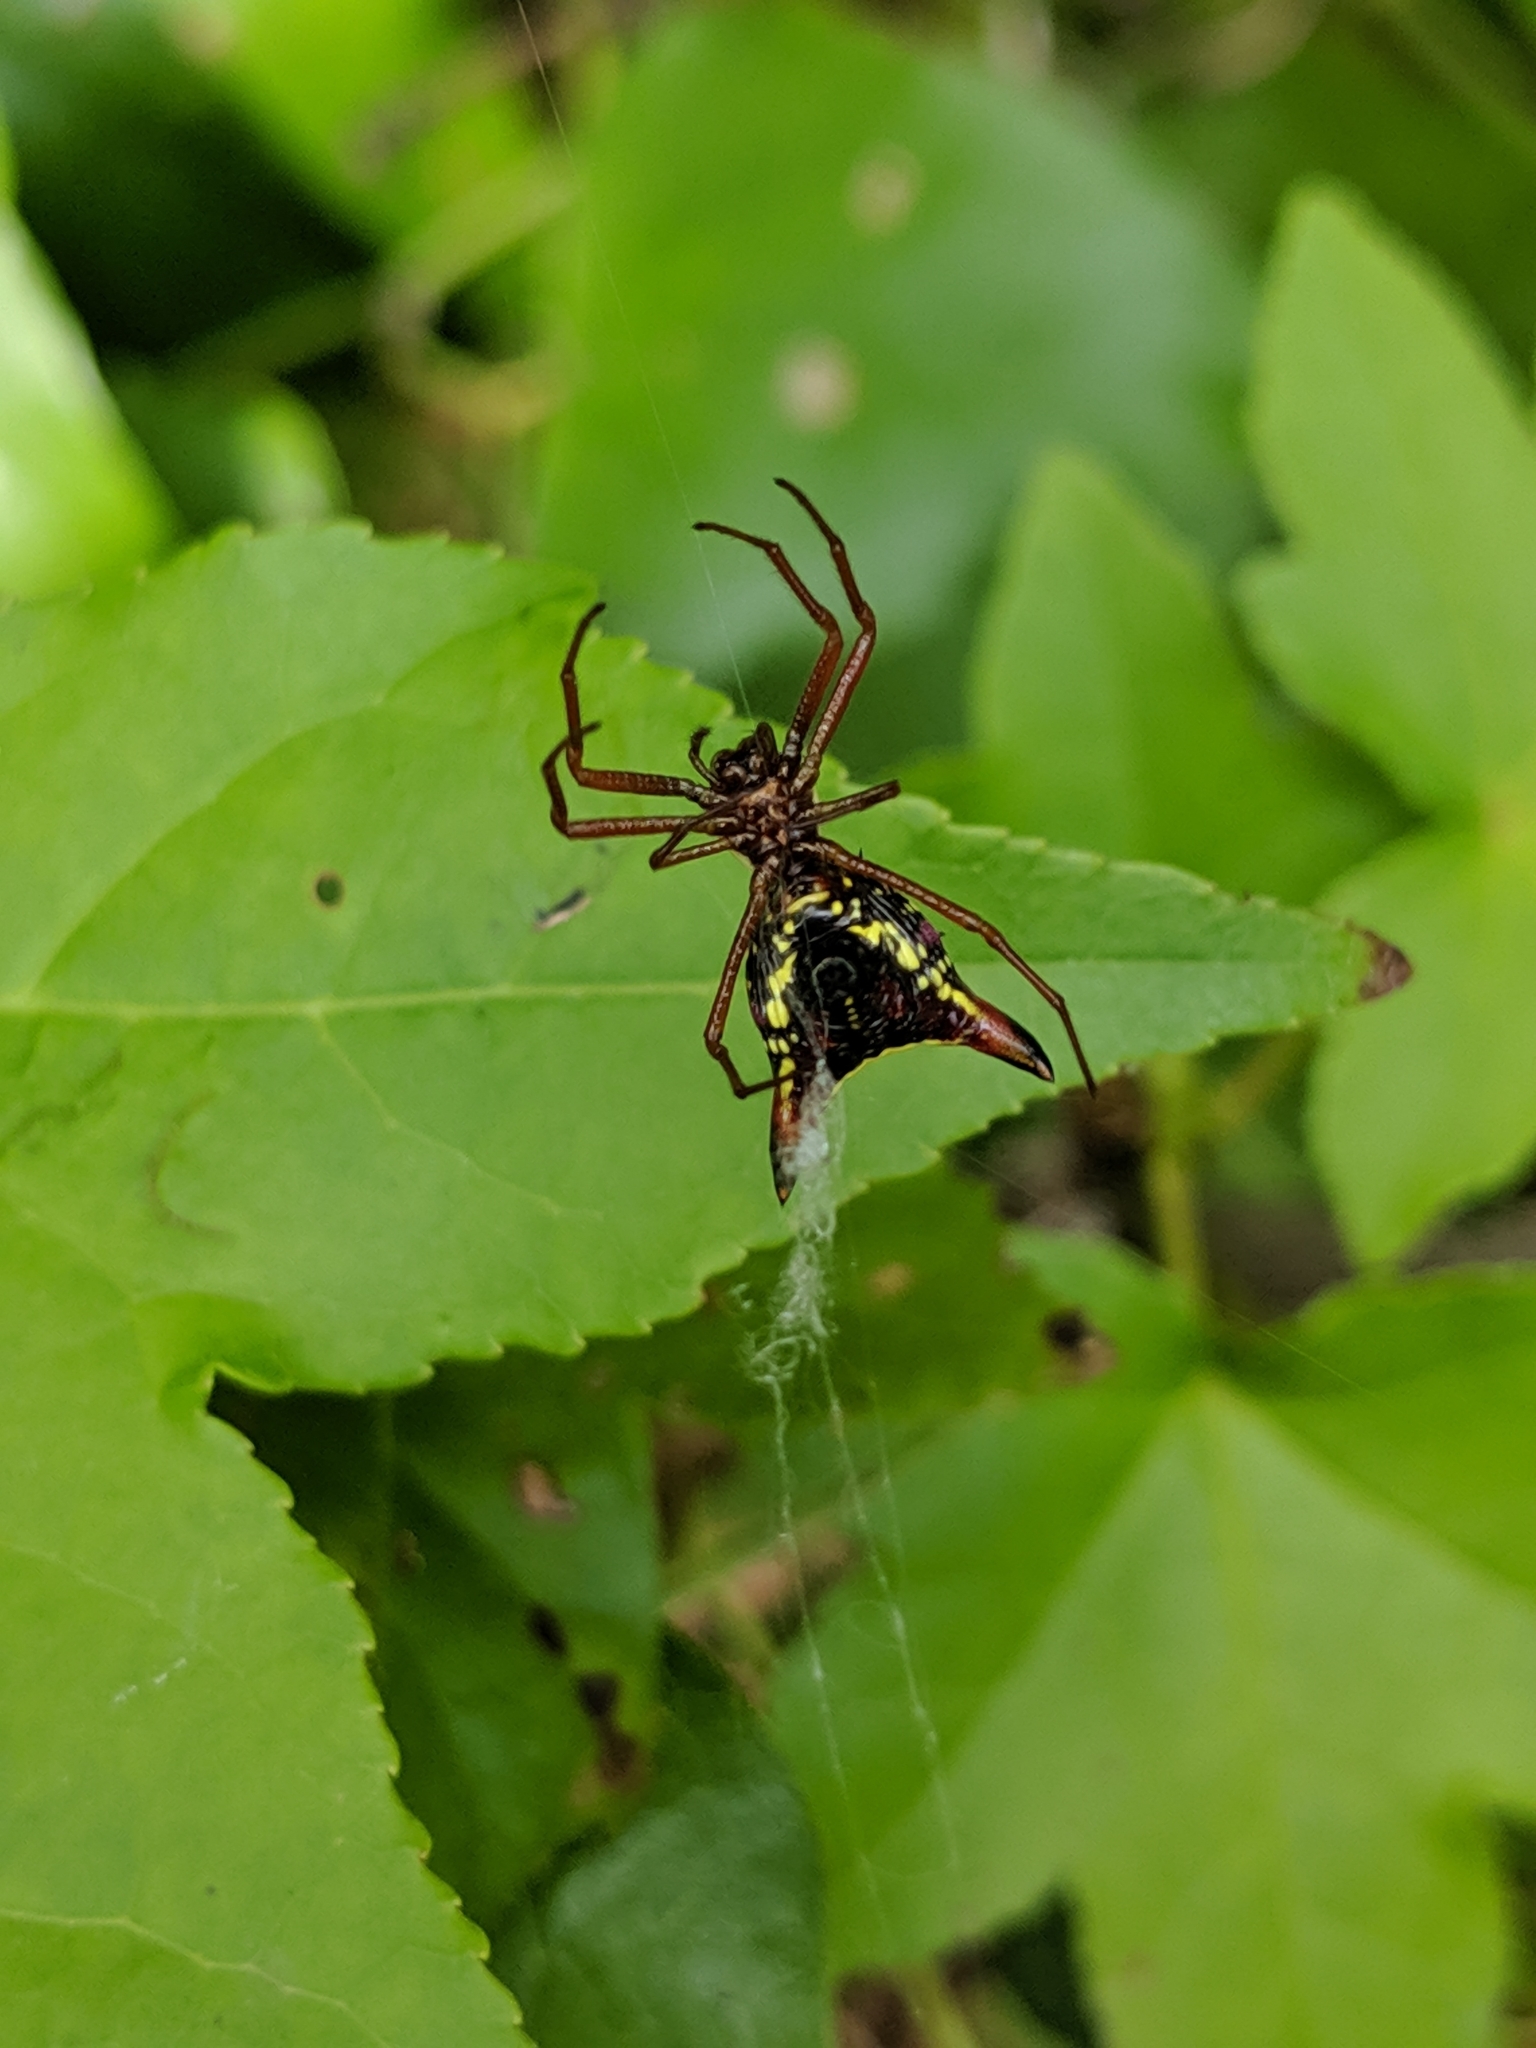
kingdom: Animalia
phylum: Arthropoda
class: Arachnida
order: Araneae
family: Araneidae
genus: Micrathena
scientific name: Micrathena sagittata
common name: Orb weavers
